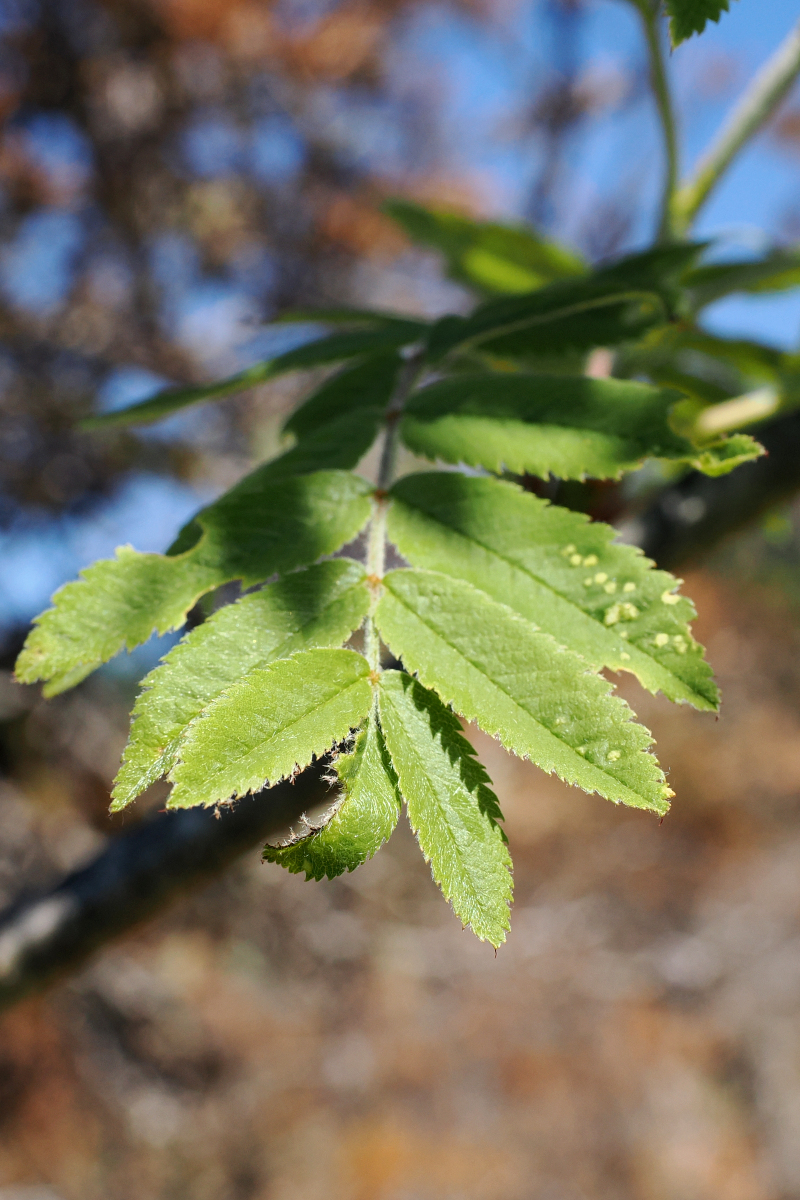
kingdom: Plantae
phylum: Tracheophyta
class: Magnoliopsida
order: Rosales
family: Rosaceae
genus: Sorbus
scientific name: Sorbus aucuparia
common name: Rowan
